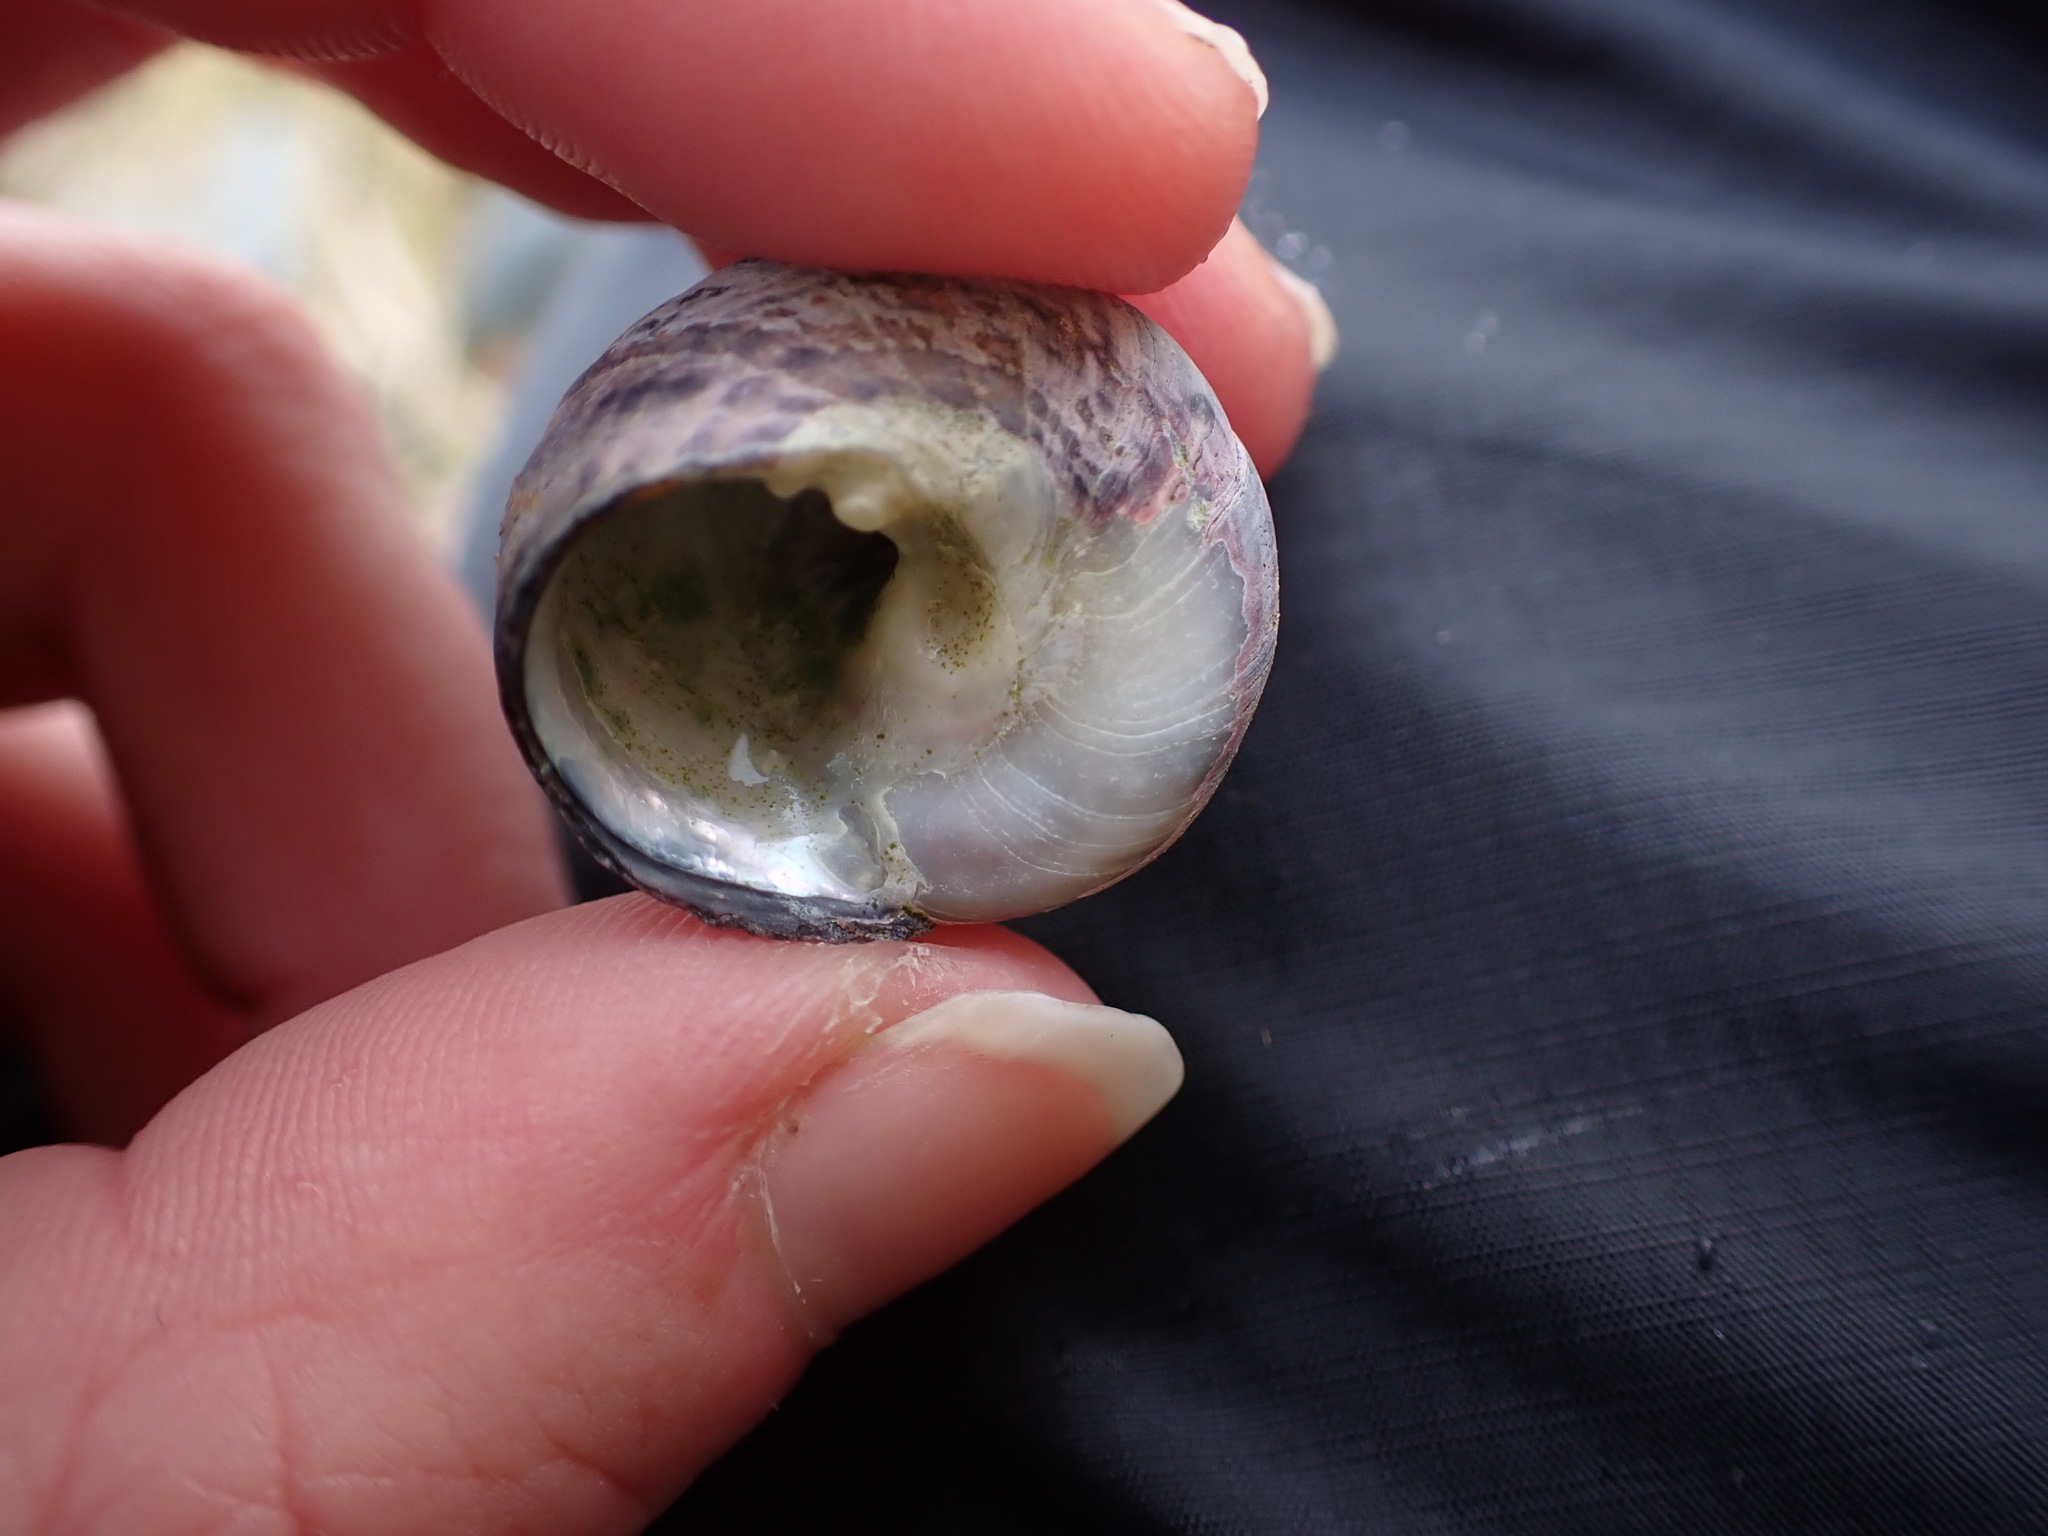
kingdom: Animalia
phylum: Mollusca
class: Gastropoda
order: Trochida
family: Tegulidae
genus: Tegula
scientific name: Tegula pulligo
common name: Brown turban
